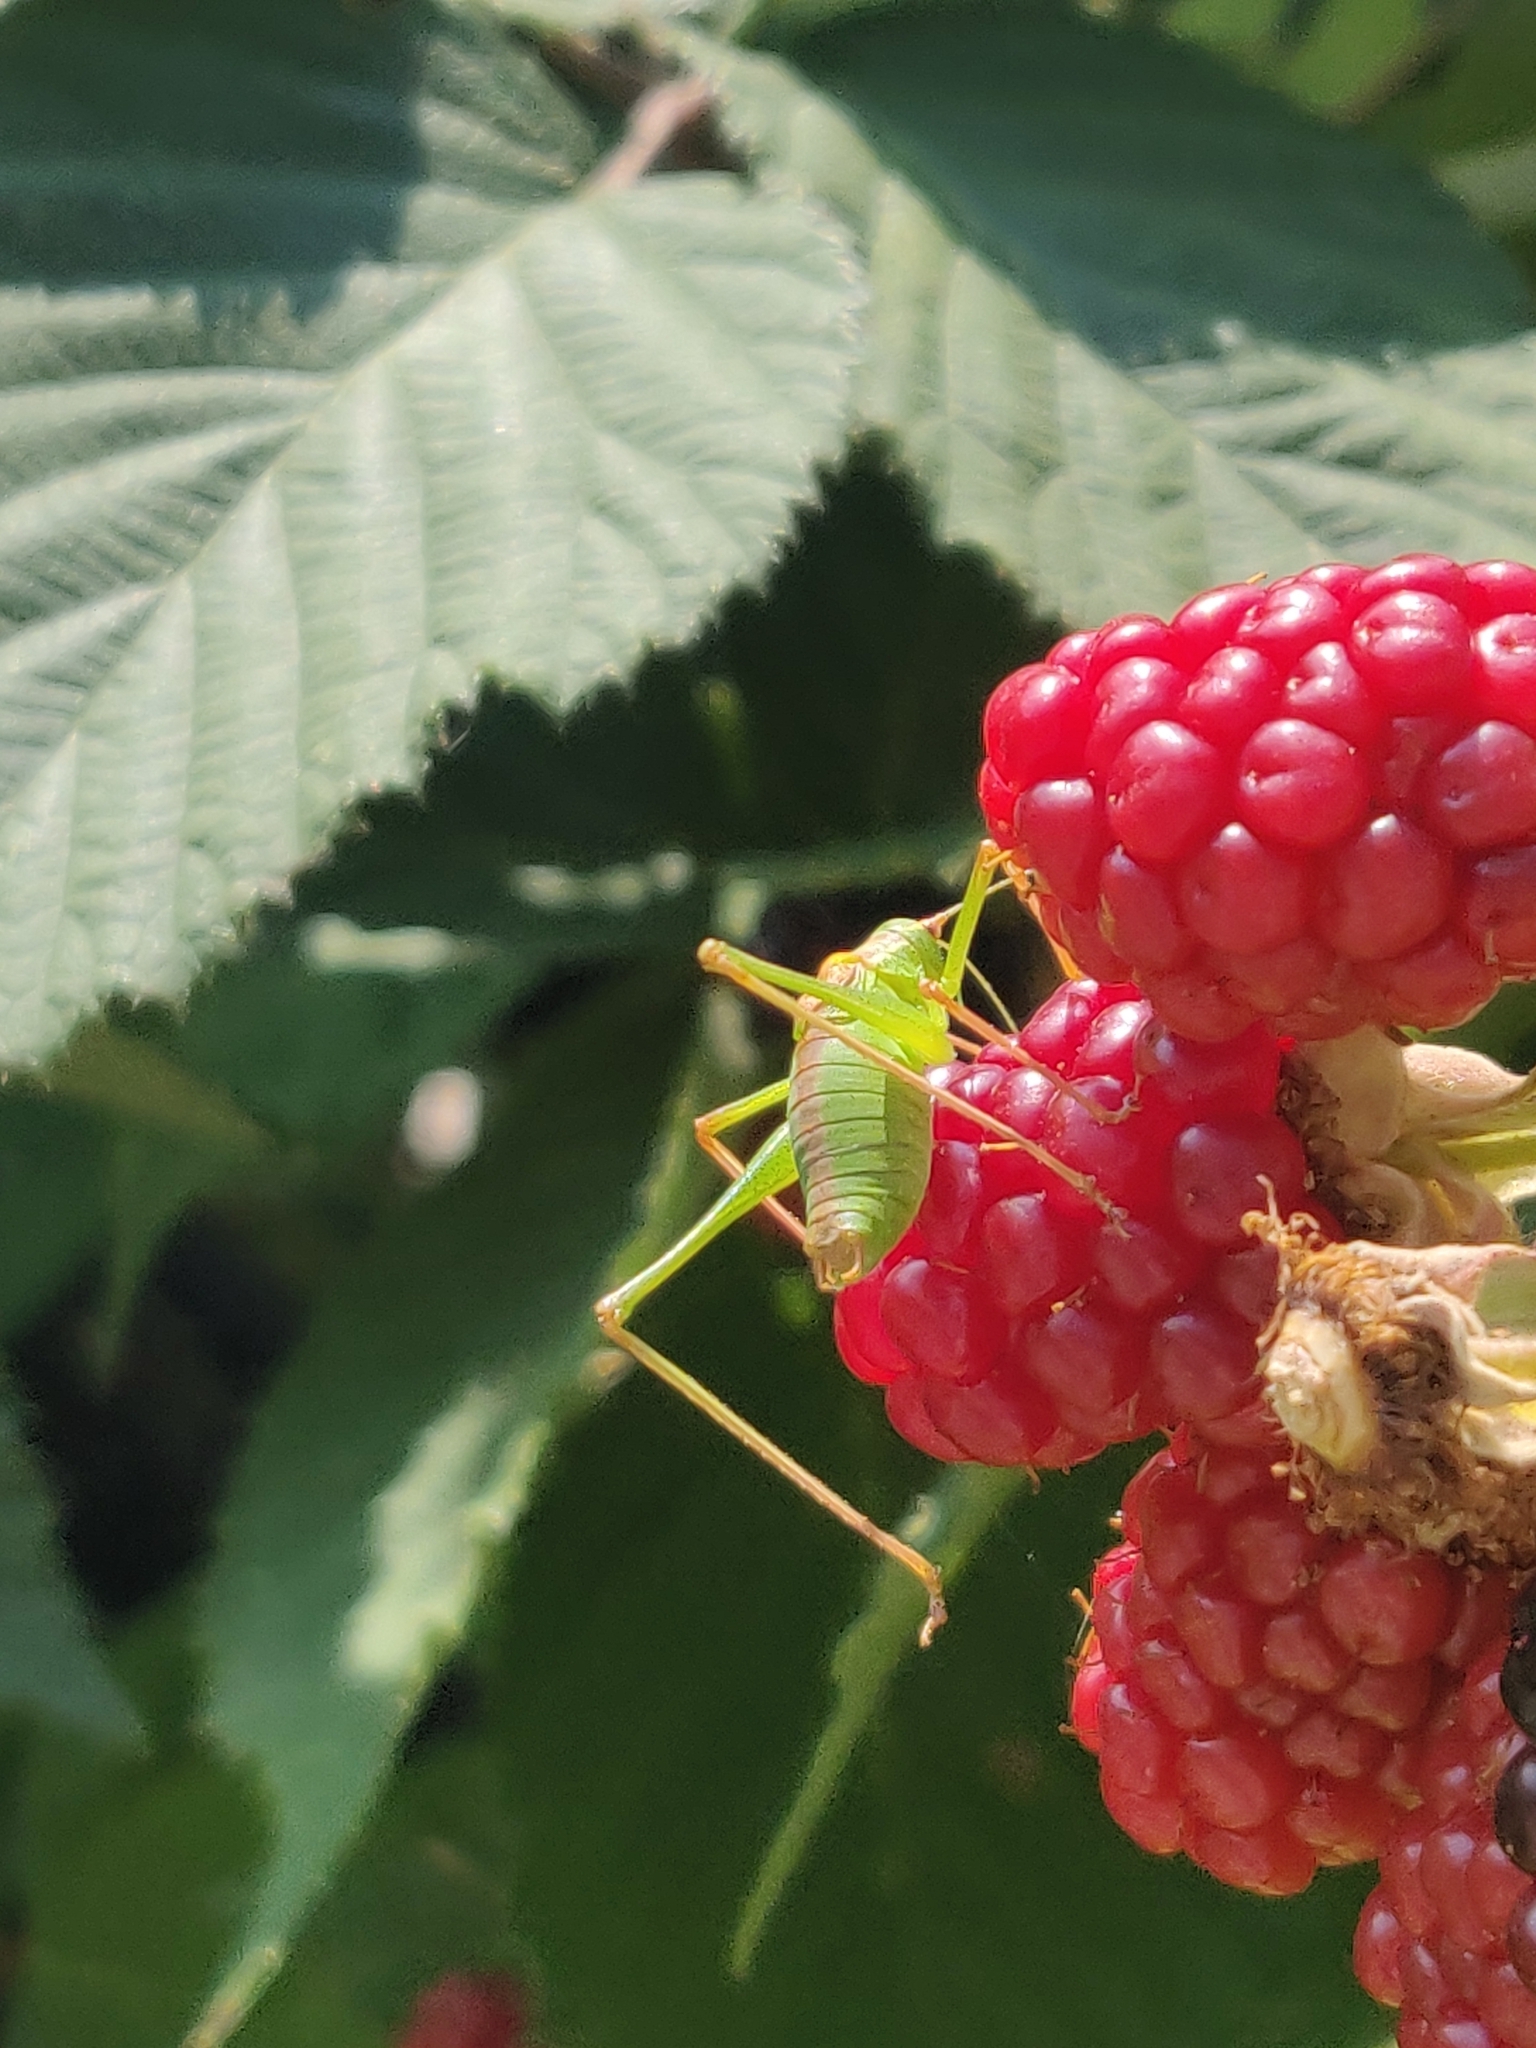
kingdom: Animalia
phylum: Arthropoda
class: Insecta
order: Orthoptera
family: Tettigoniidae
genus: Leptophyes
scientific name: Leptophyes punctatissima
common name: Speckled bush-cricket
